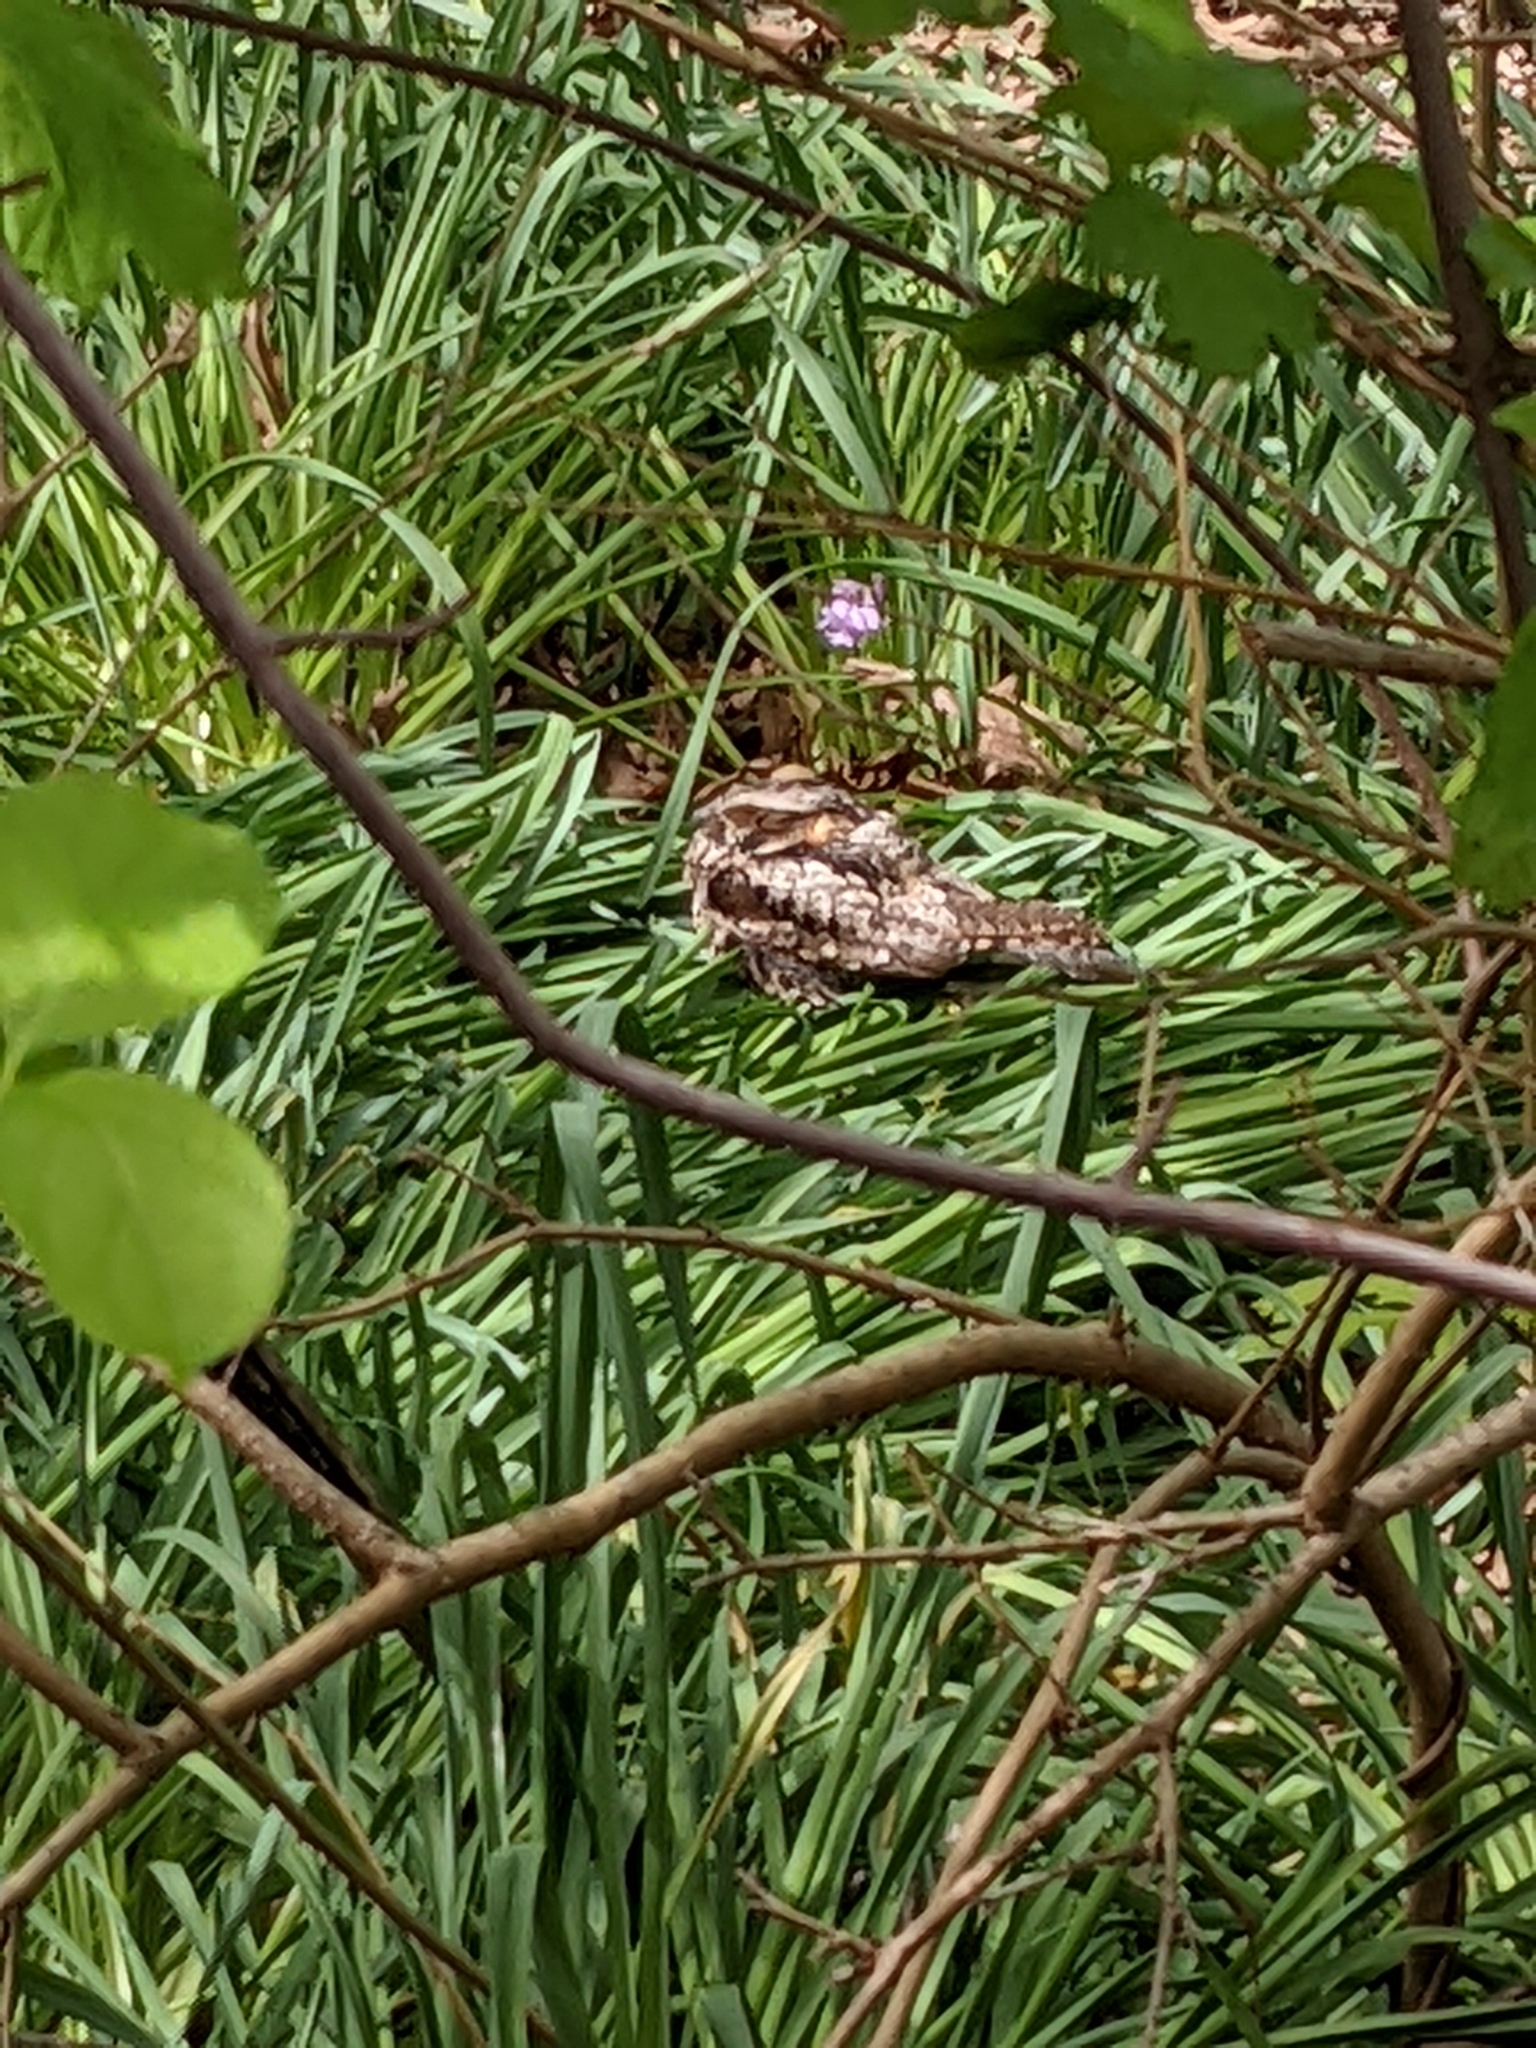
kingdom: Animalia
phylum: Chordata
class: Aves
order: Caprimulgiformes
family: Caprimulgidae
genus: Antrostomus
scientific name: Antrostomus carolinensis
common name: Chuck-will's-widow
